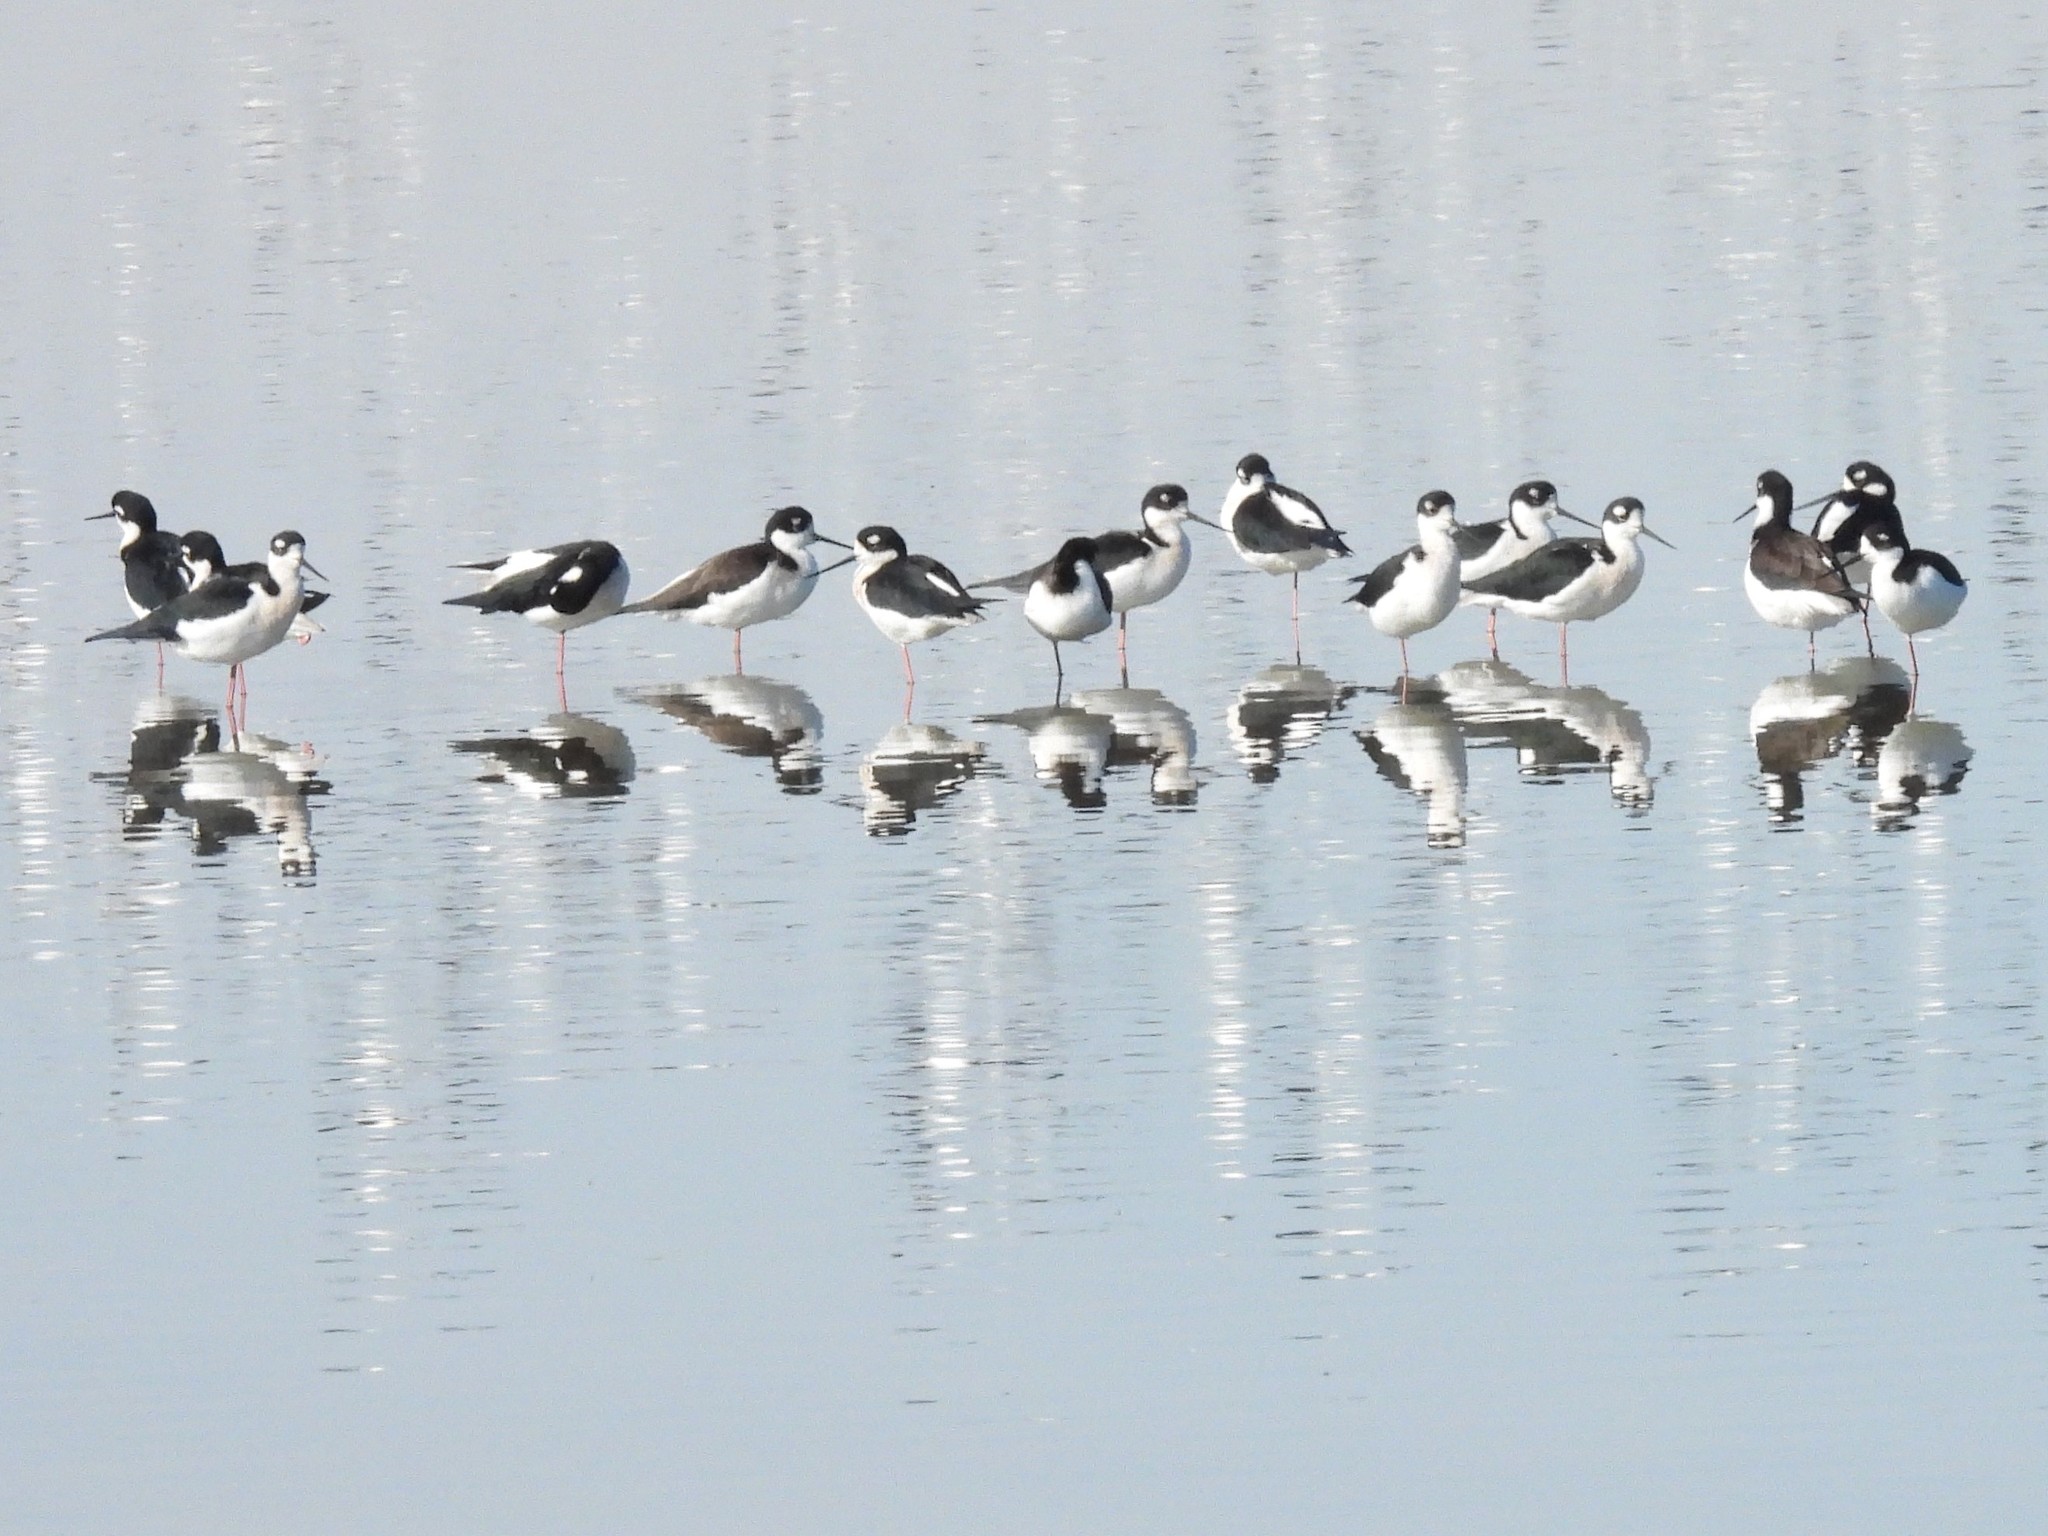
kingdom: Animalia
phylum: Chordata
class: Aves
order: Charadriiformes
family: Recurvirostridae
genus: Himantopus
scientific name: Himantopus mexicanus
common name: Black-necked stilt
